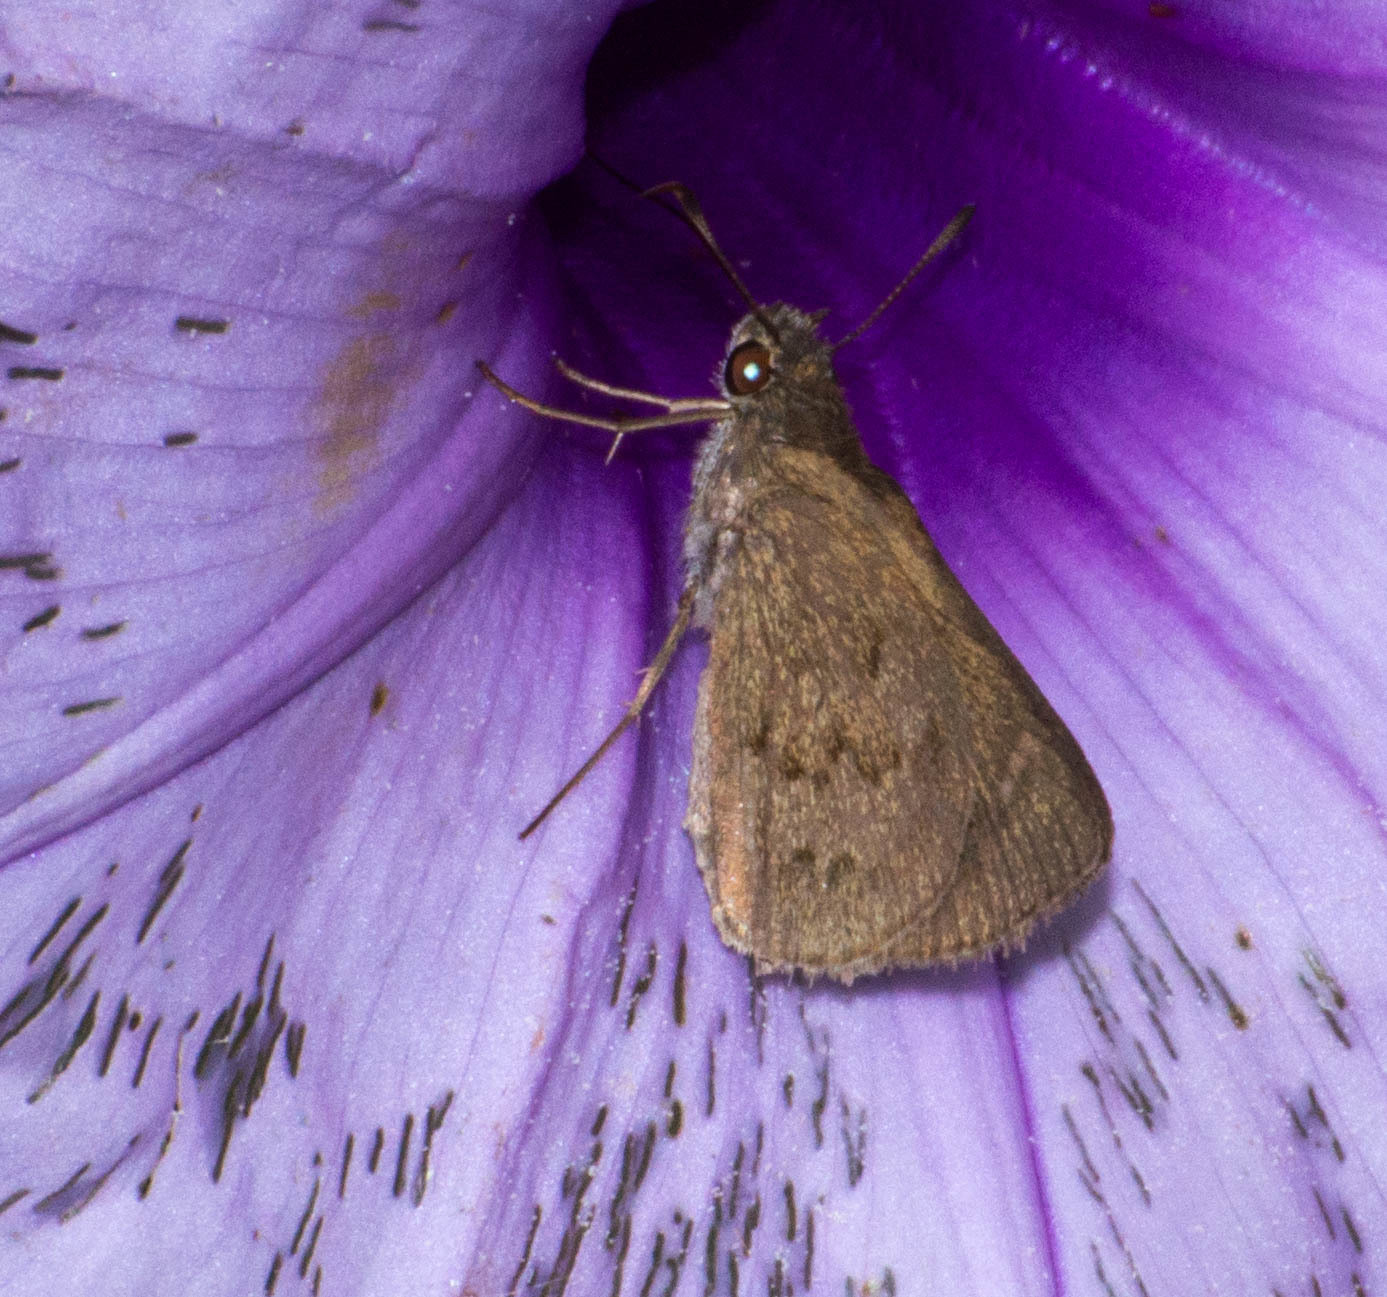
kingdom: Animalia
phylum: Arthropoda
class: Insecta
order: Lepidoptera
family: Hesperiidae
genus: Cymaenes
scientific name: Cymaenes gisca
